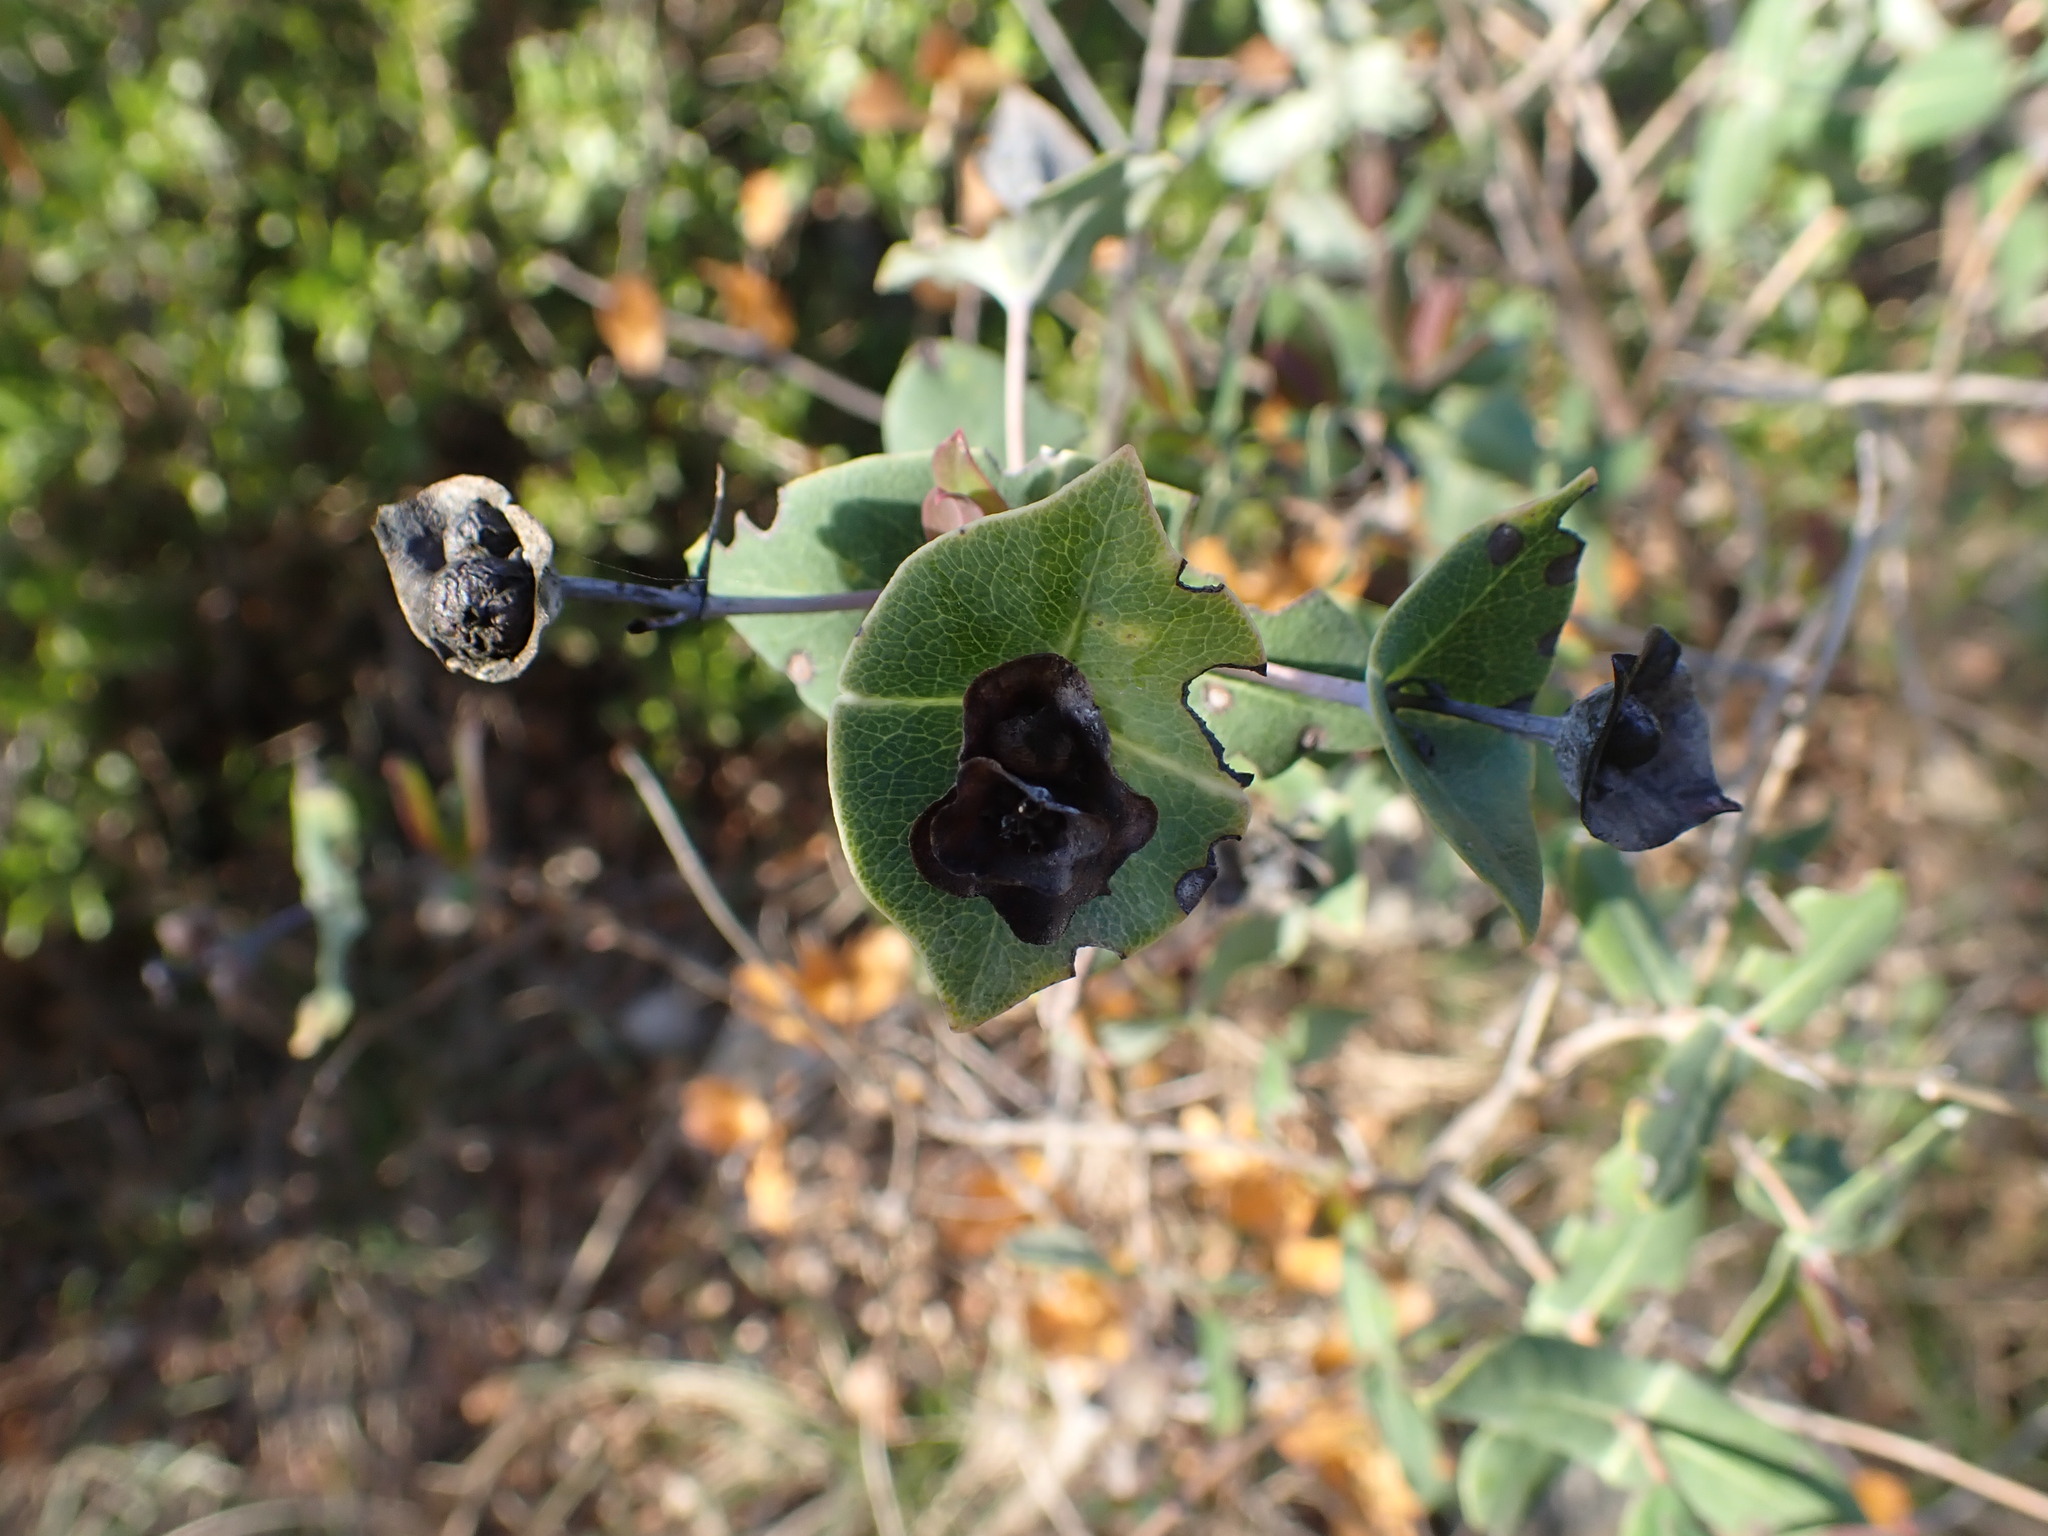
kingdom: Plantae
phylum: Tracheophyta
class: Magnoliopsida
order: Dipsacales
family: Caprifoliaceae
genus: Lonicera
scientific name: Lonicera implexa
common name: Minorca honeysuckle
